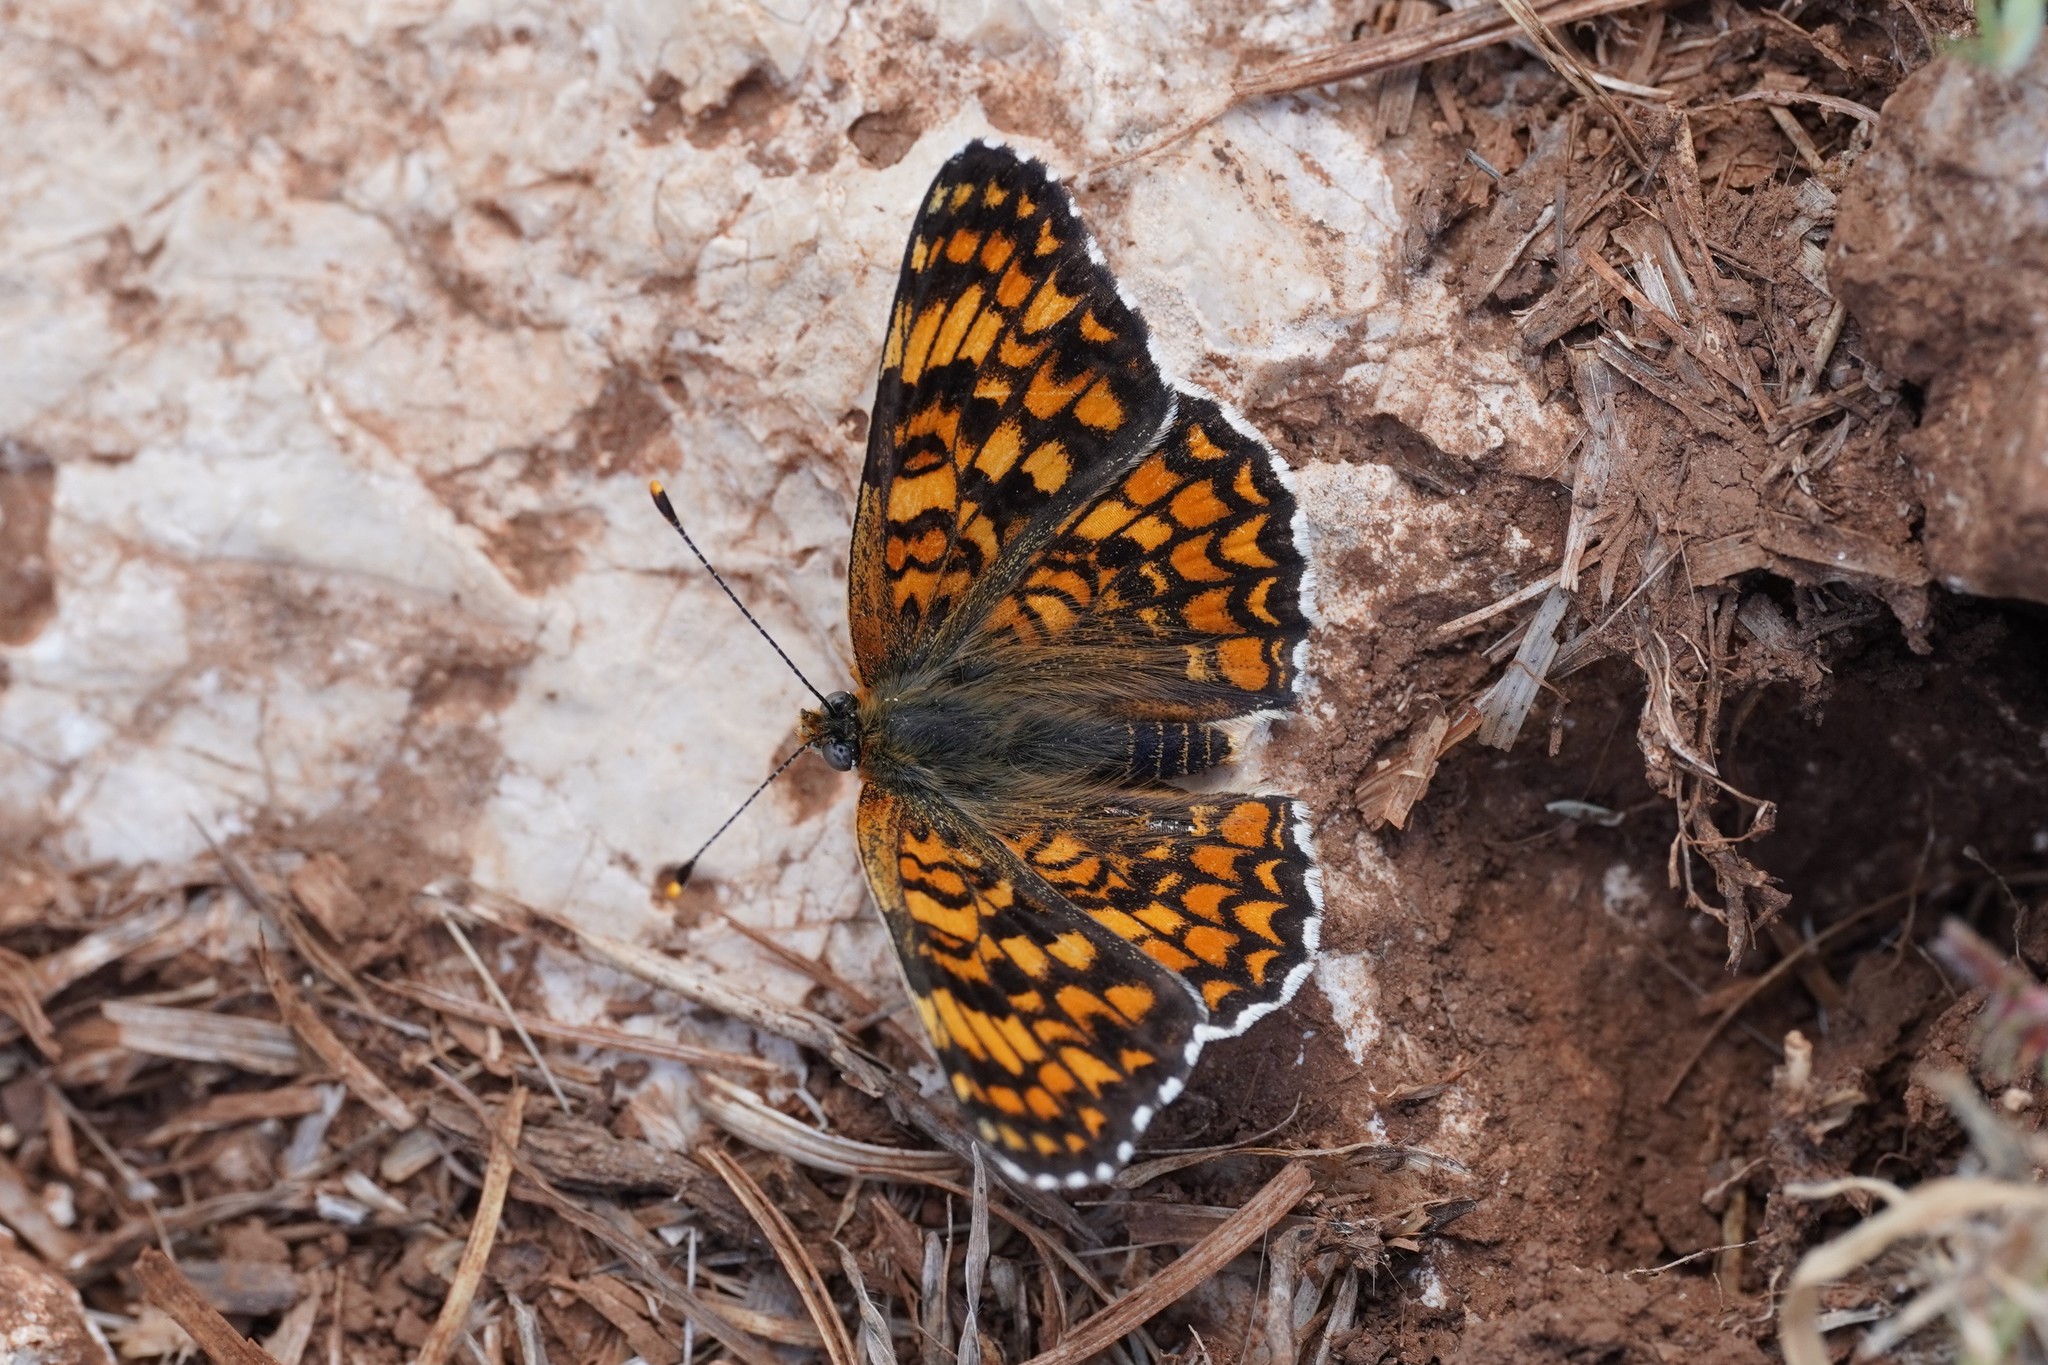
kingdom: Animalia
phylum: Arthropoda
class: Insecta
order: Lepidoptera
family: Nymphalidae
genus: Melitaea
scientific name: Melitaea phoebe
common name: Knapweed fritillary
